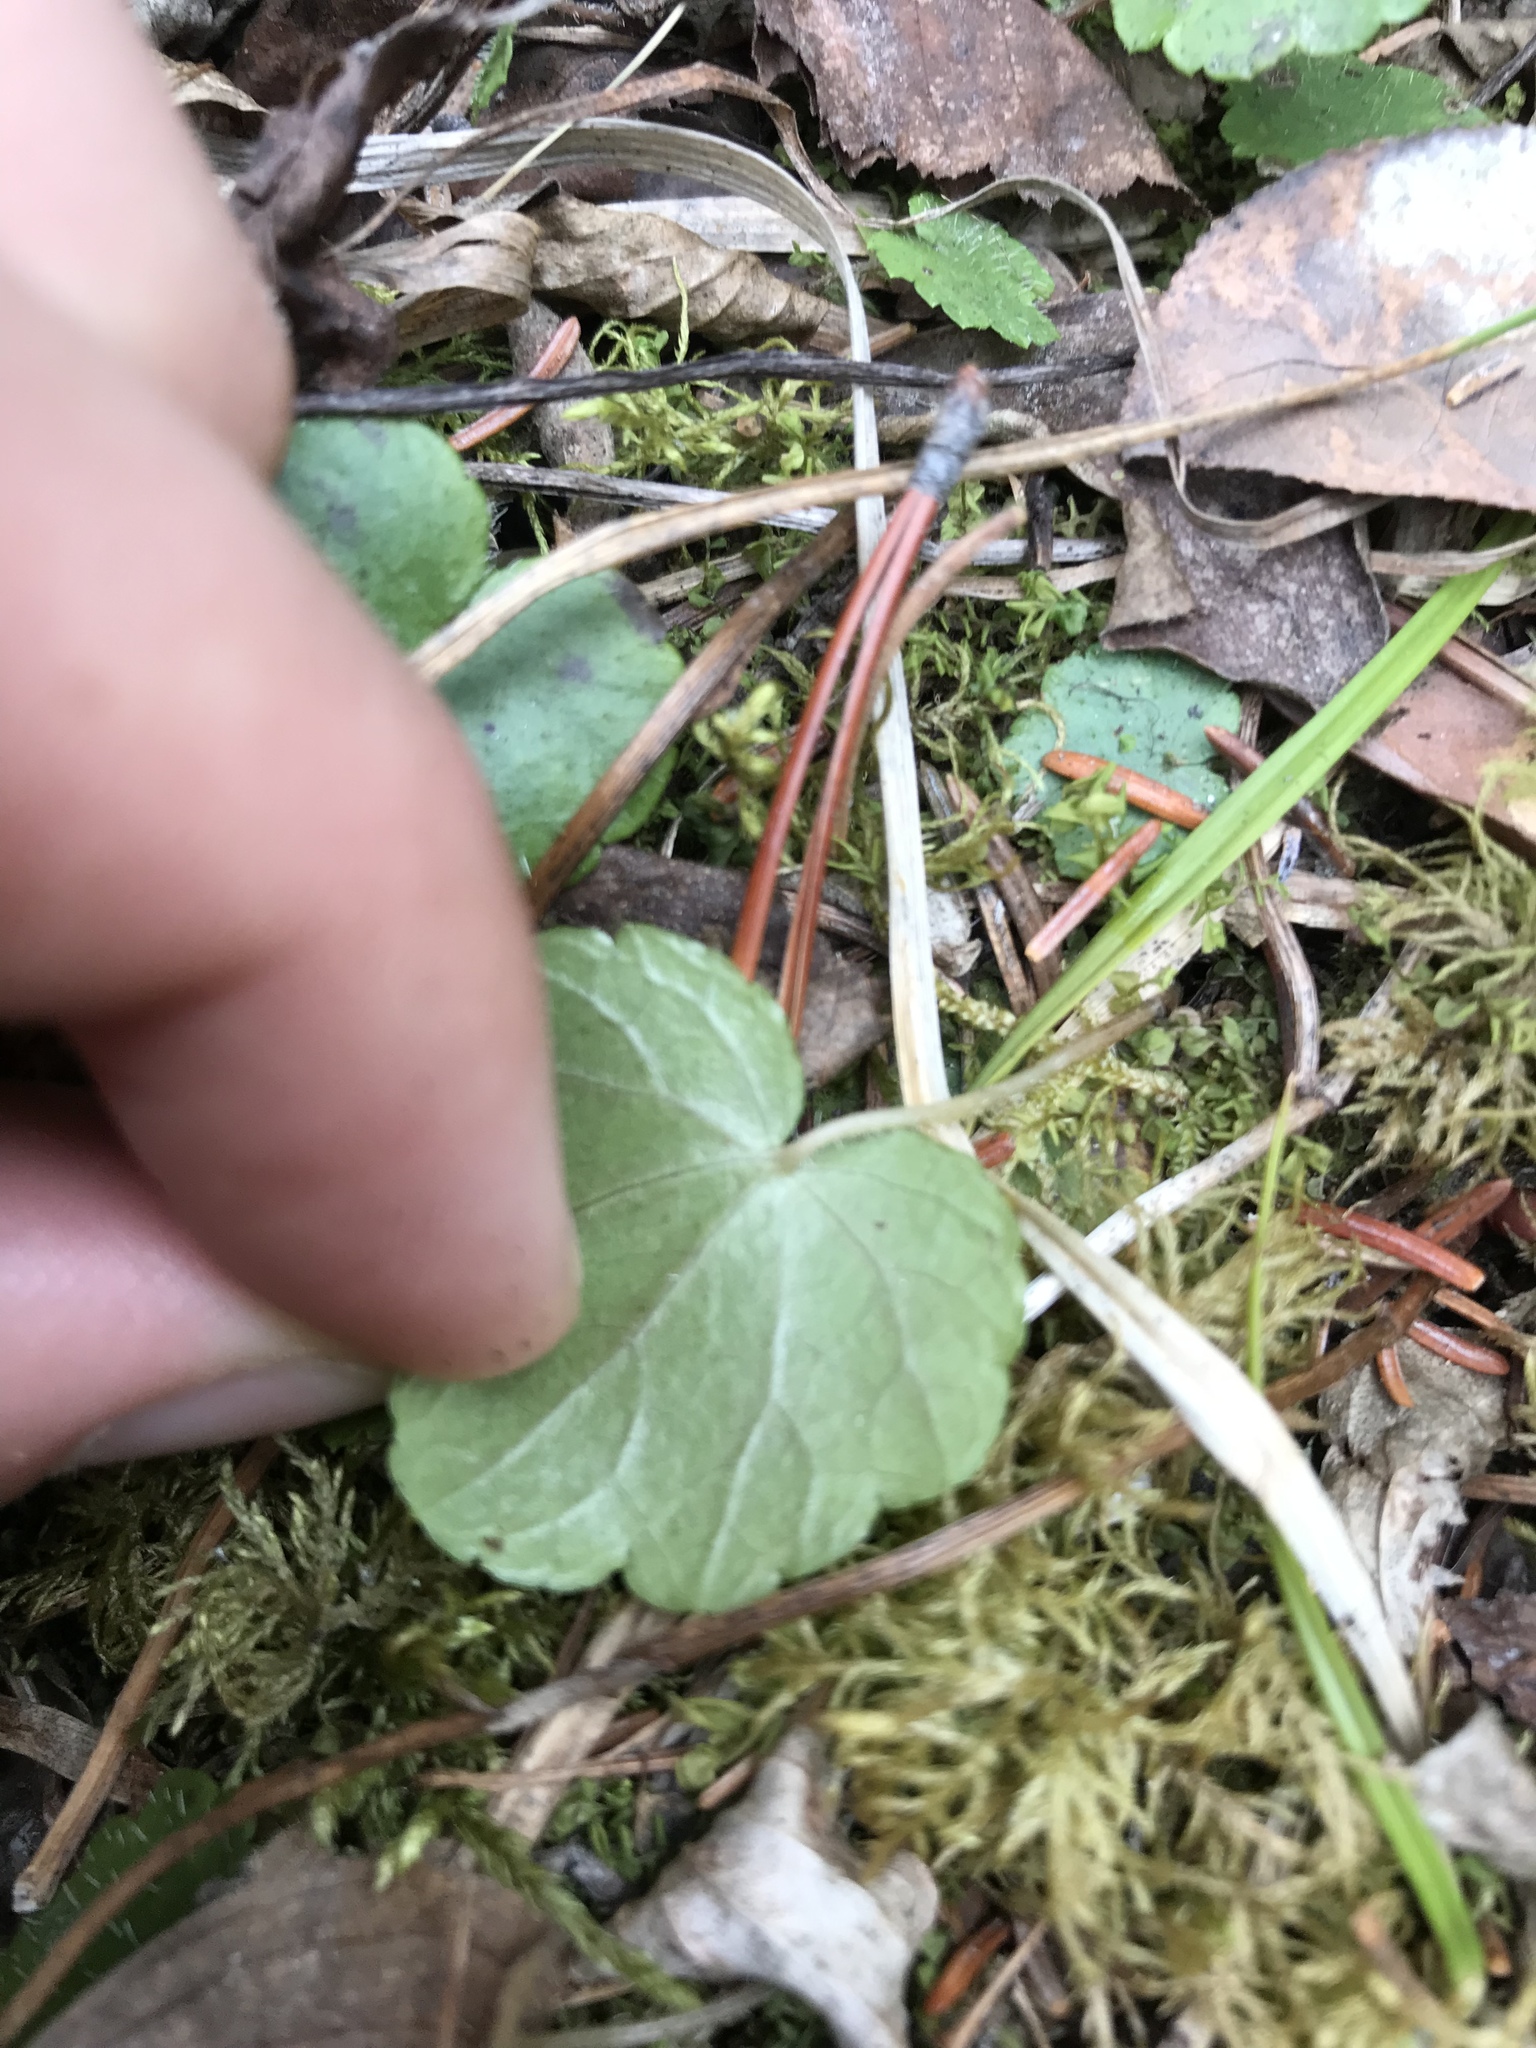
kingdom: Plantae
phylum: Tracheophyta
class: Magnoliopsida
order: Saxifragales
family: Saxifragaceae
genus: Mitella
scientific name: Mitella nuda
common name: Bare-stemmed bishop's-cap
